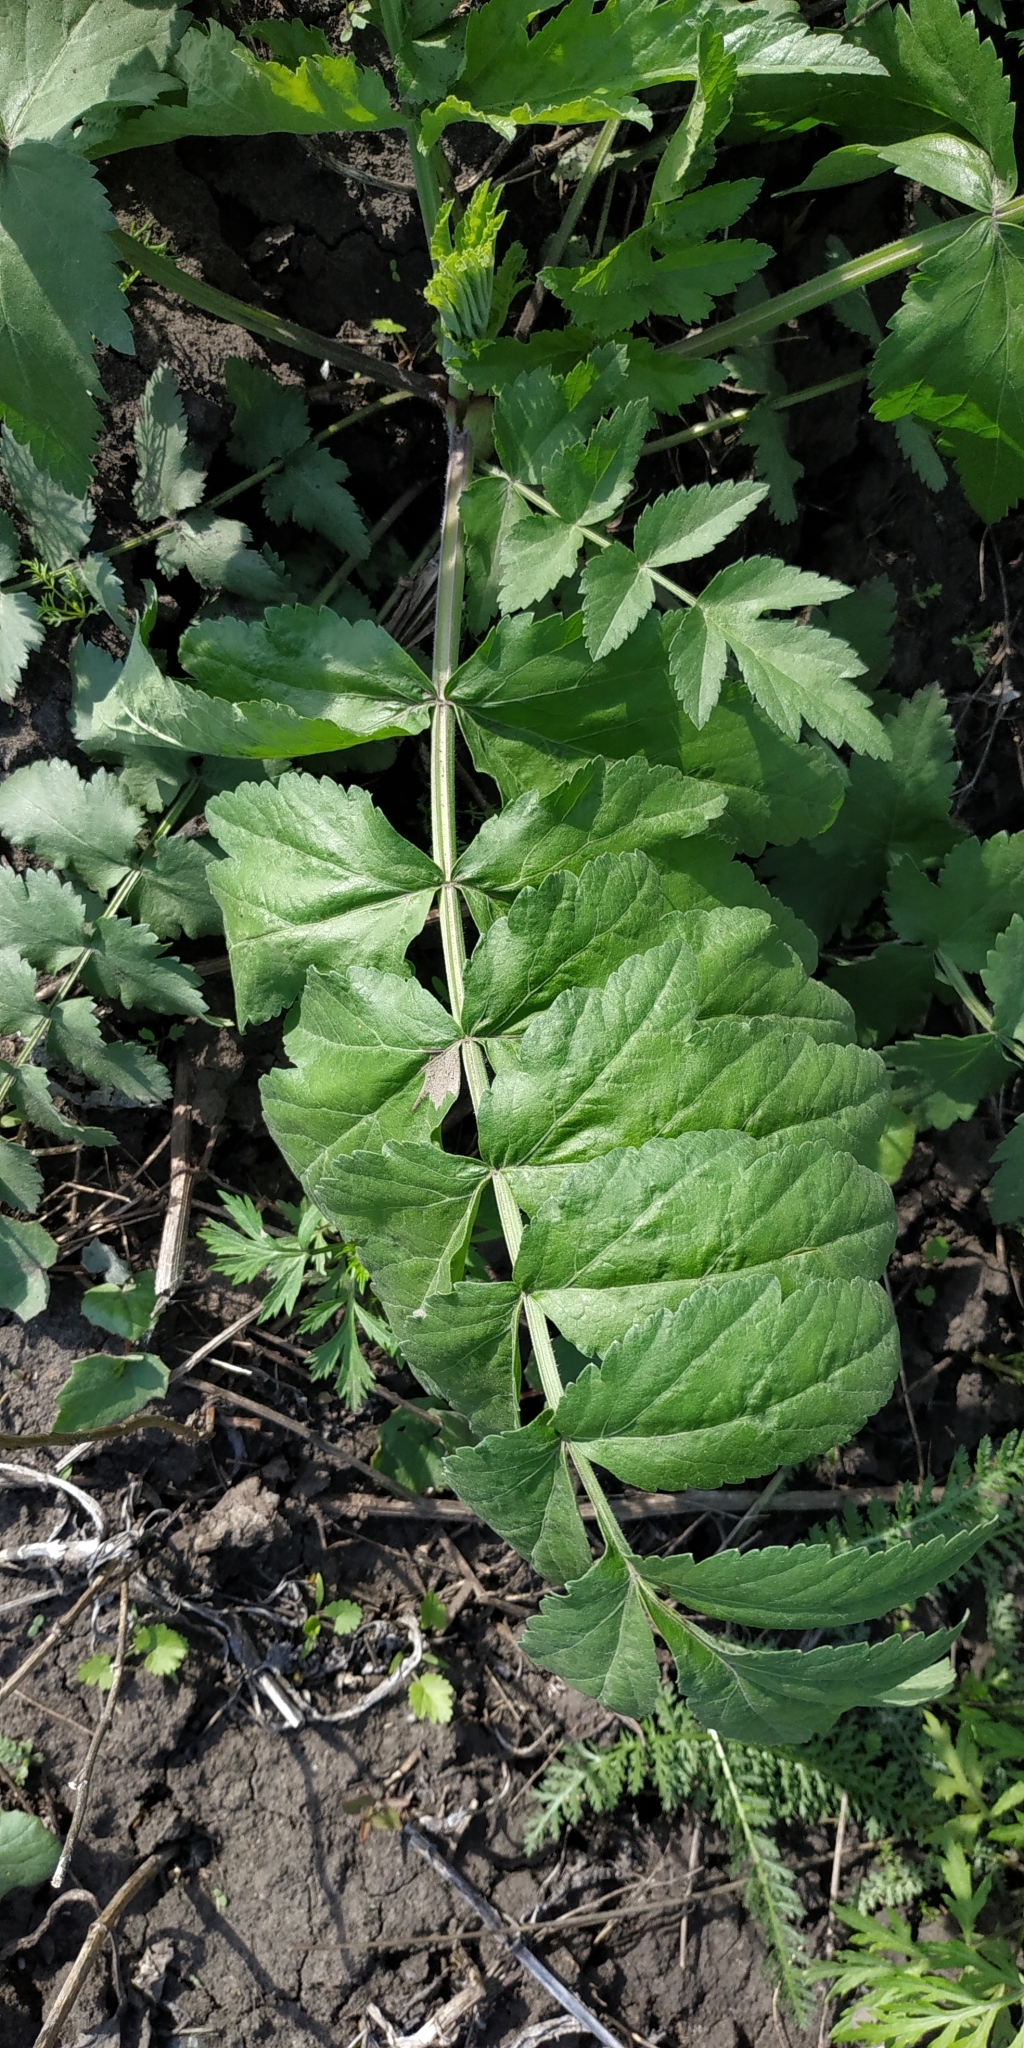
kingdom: Plantae
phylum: Tracheophyta
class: Magnoliopsida
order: Apiales
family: Apiaceae
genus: Pastinaca
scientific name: Pastinaca sativa
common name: Wild parsnip
